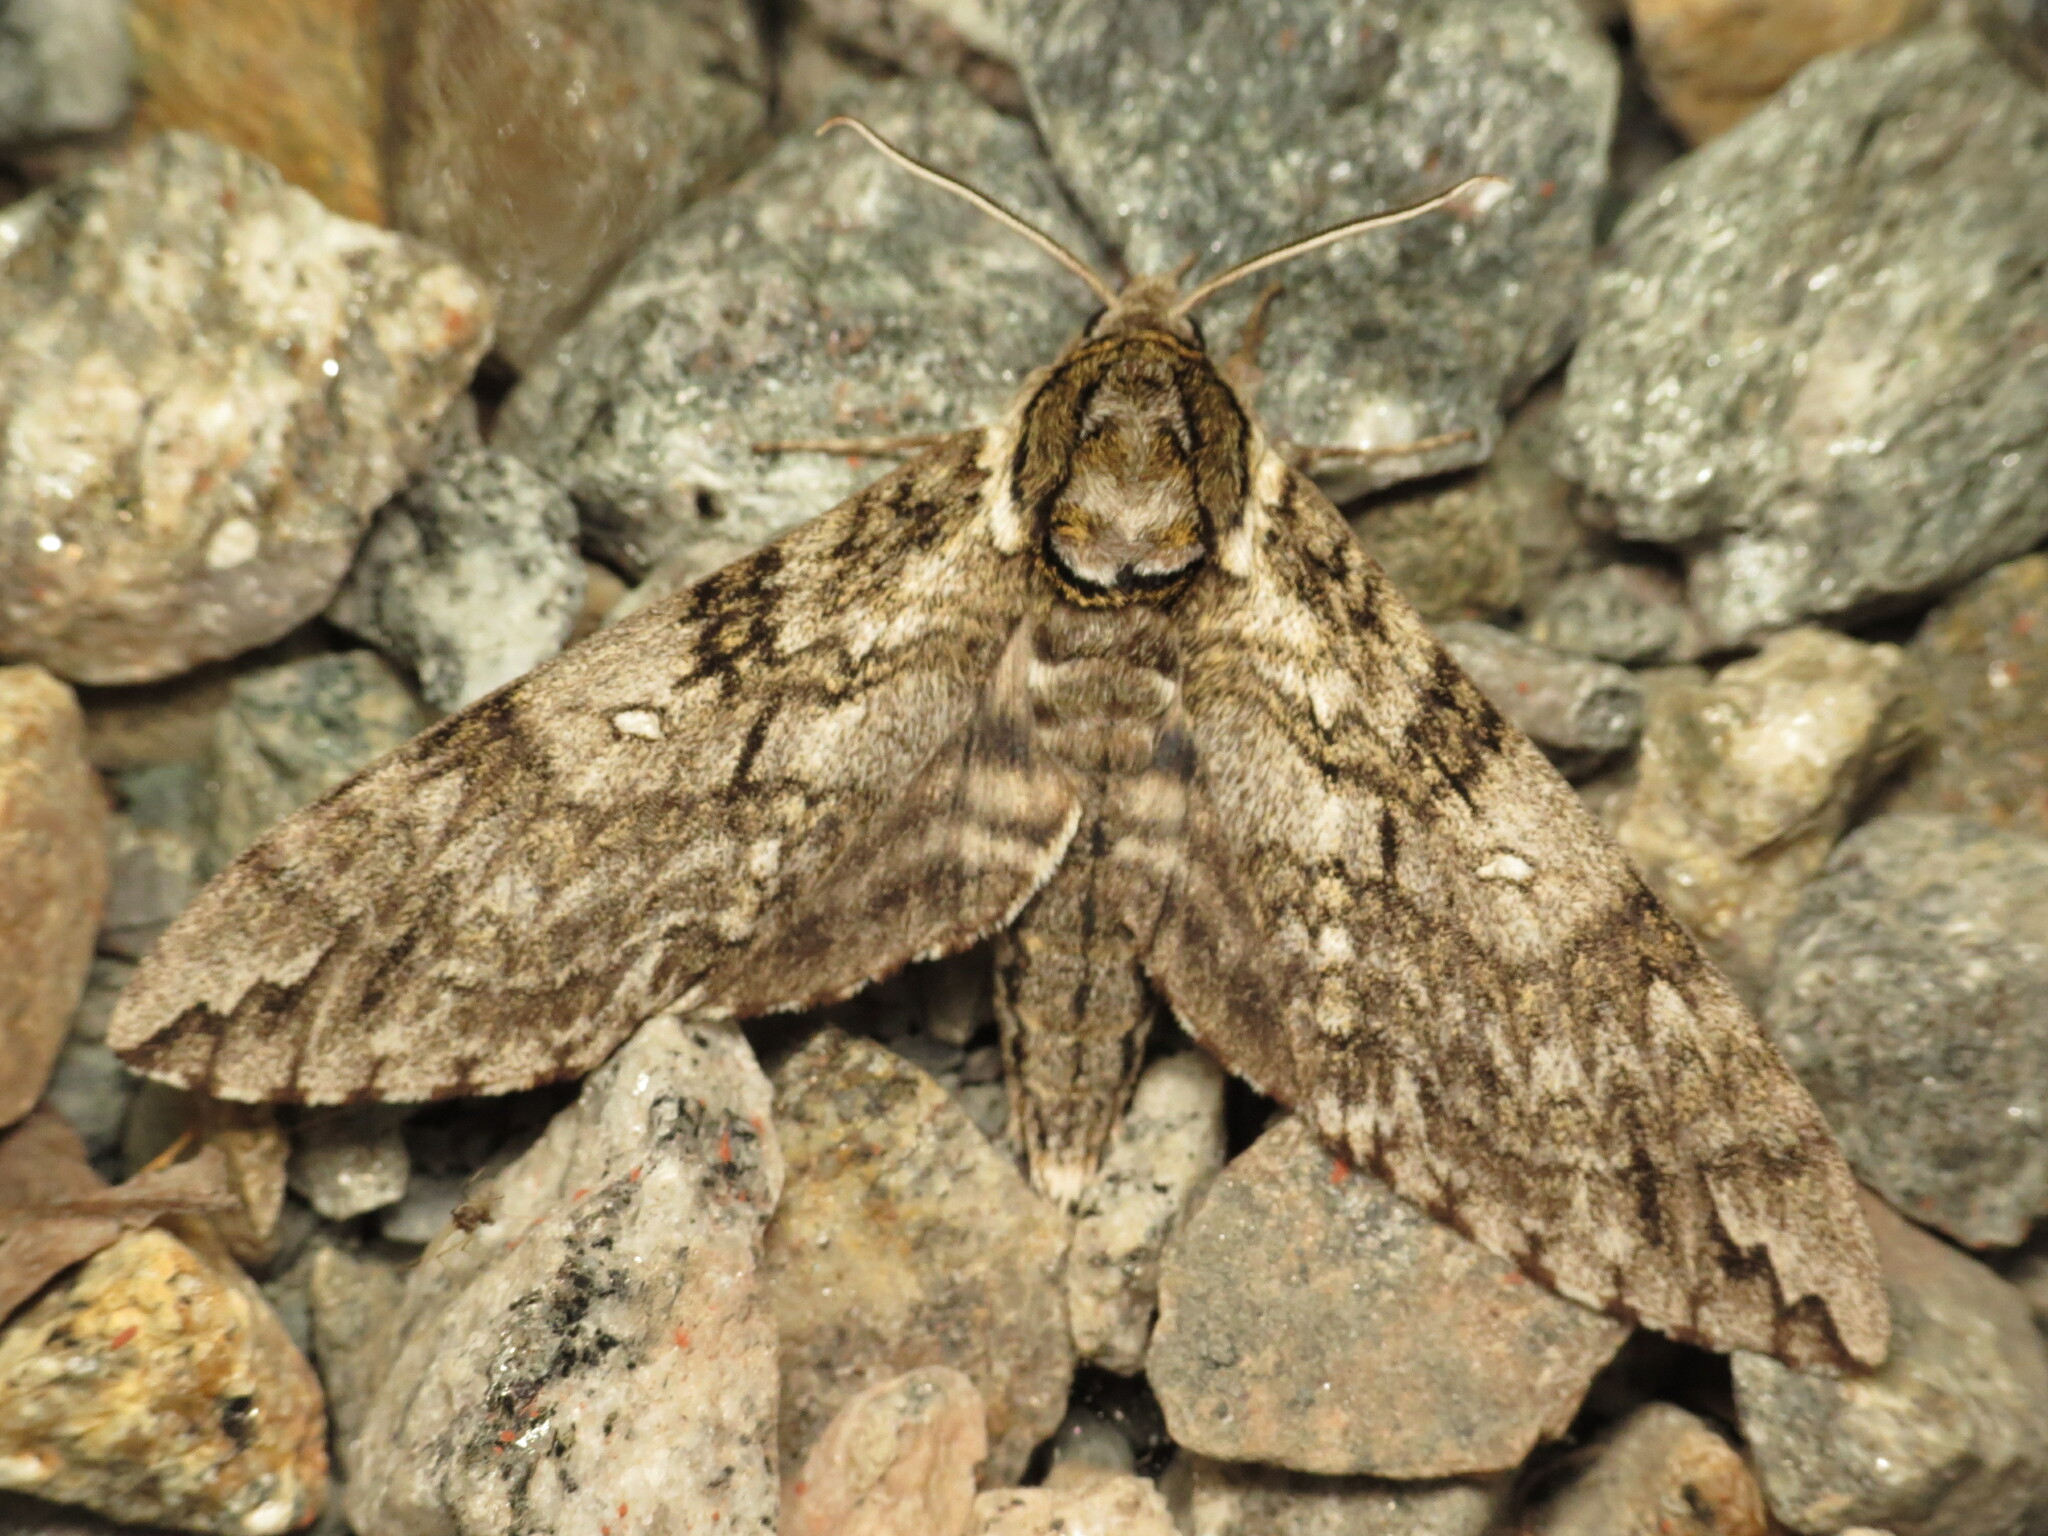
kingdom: Animalia
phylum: Arthropoda
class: Insecta
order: Lepidoptera
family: Sphingidae
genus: Ceratomia
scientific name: Ceratomia undulosa
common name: Waved sphinx
